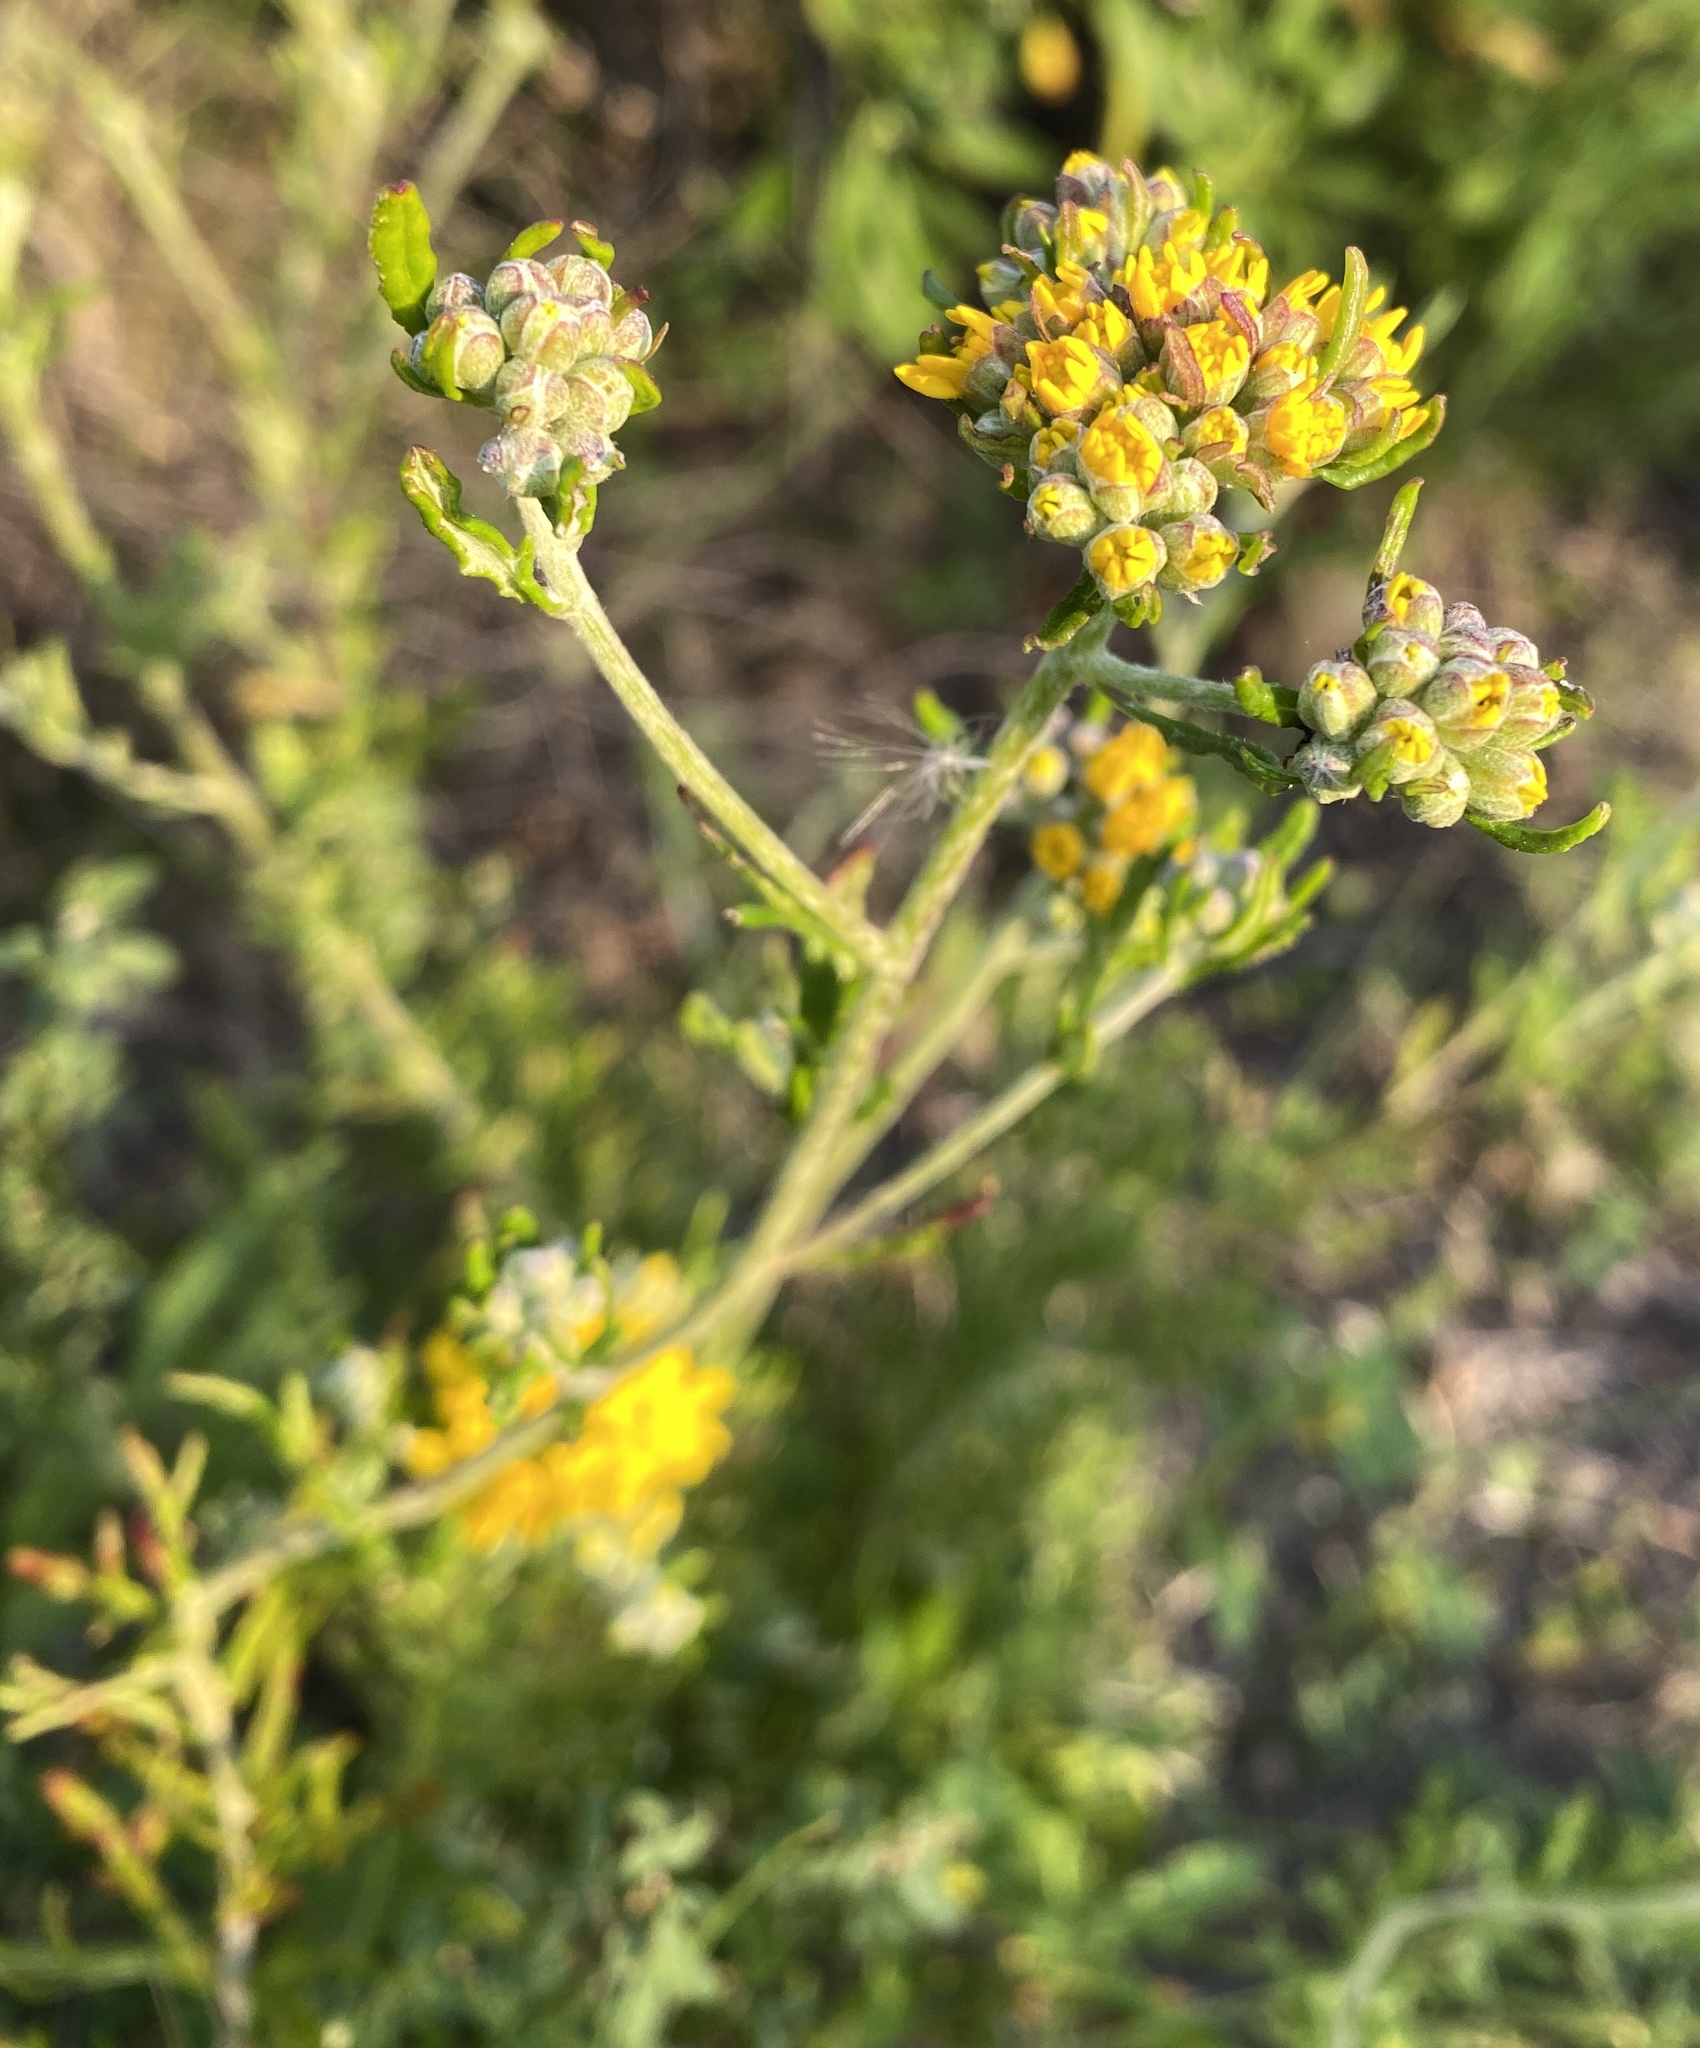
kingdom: Plantae
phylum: Tracheophyta
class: Magnoliopsida
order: Asterales
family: Asteraceae
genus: Eriophyllum
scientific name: Eriophyllum confertiflorum
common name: Golden-yarrow
